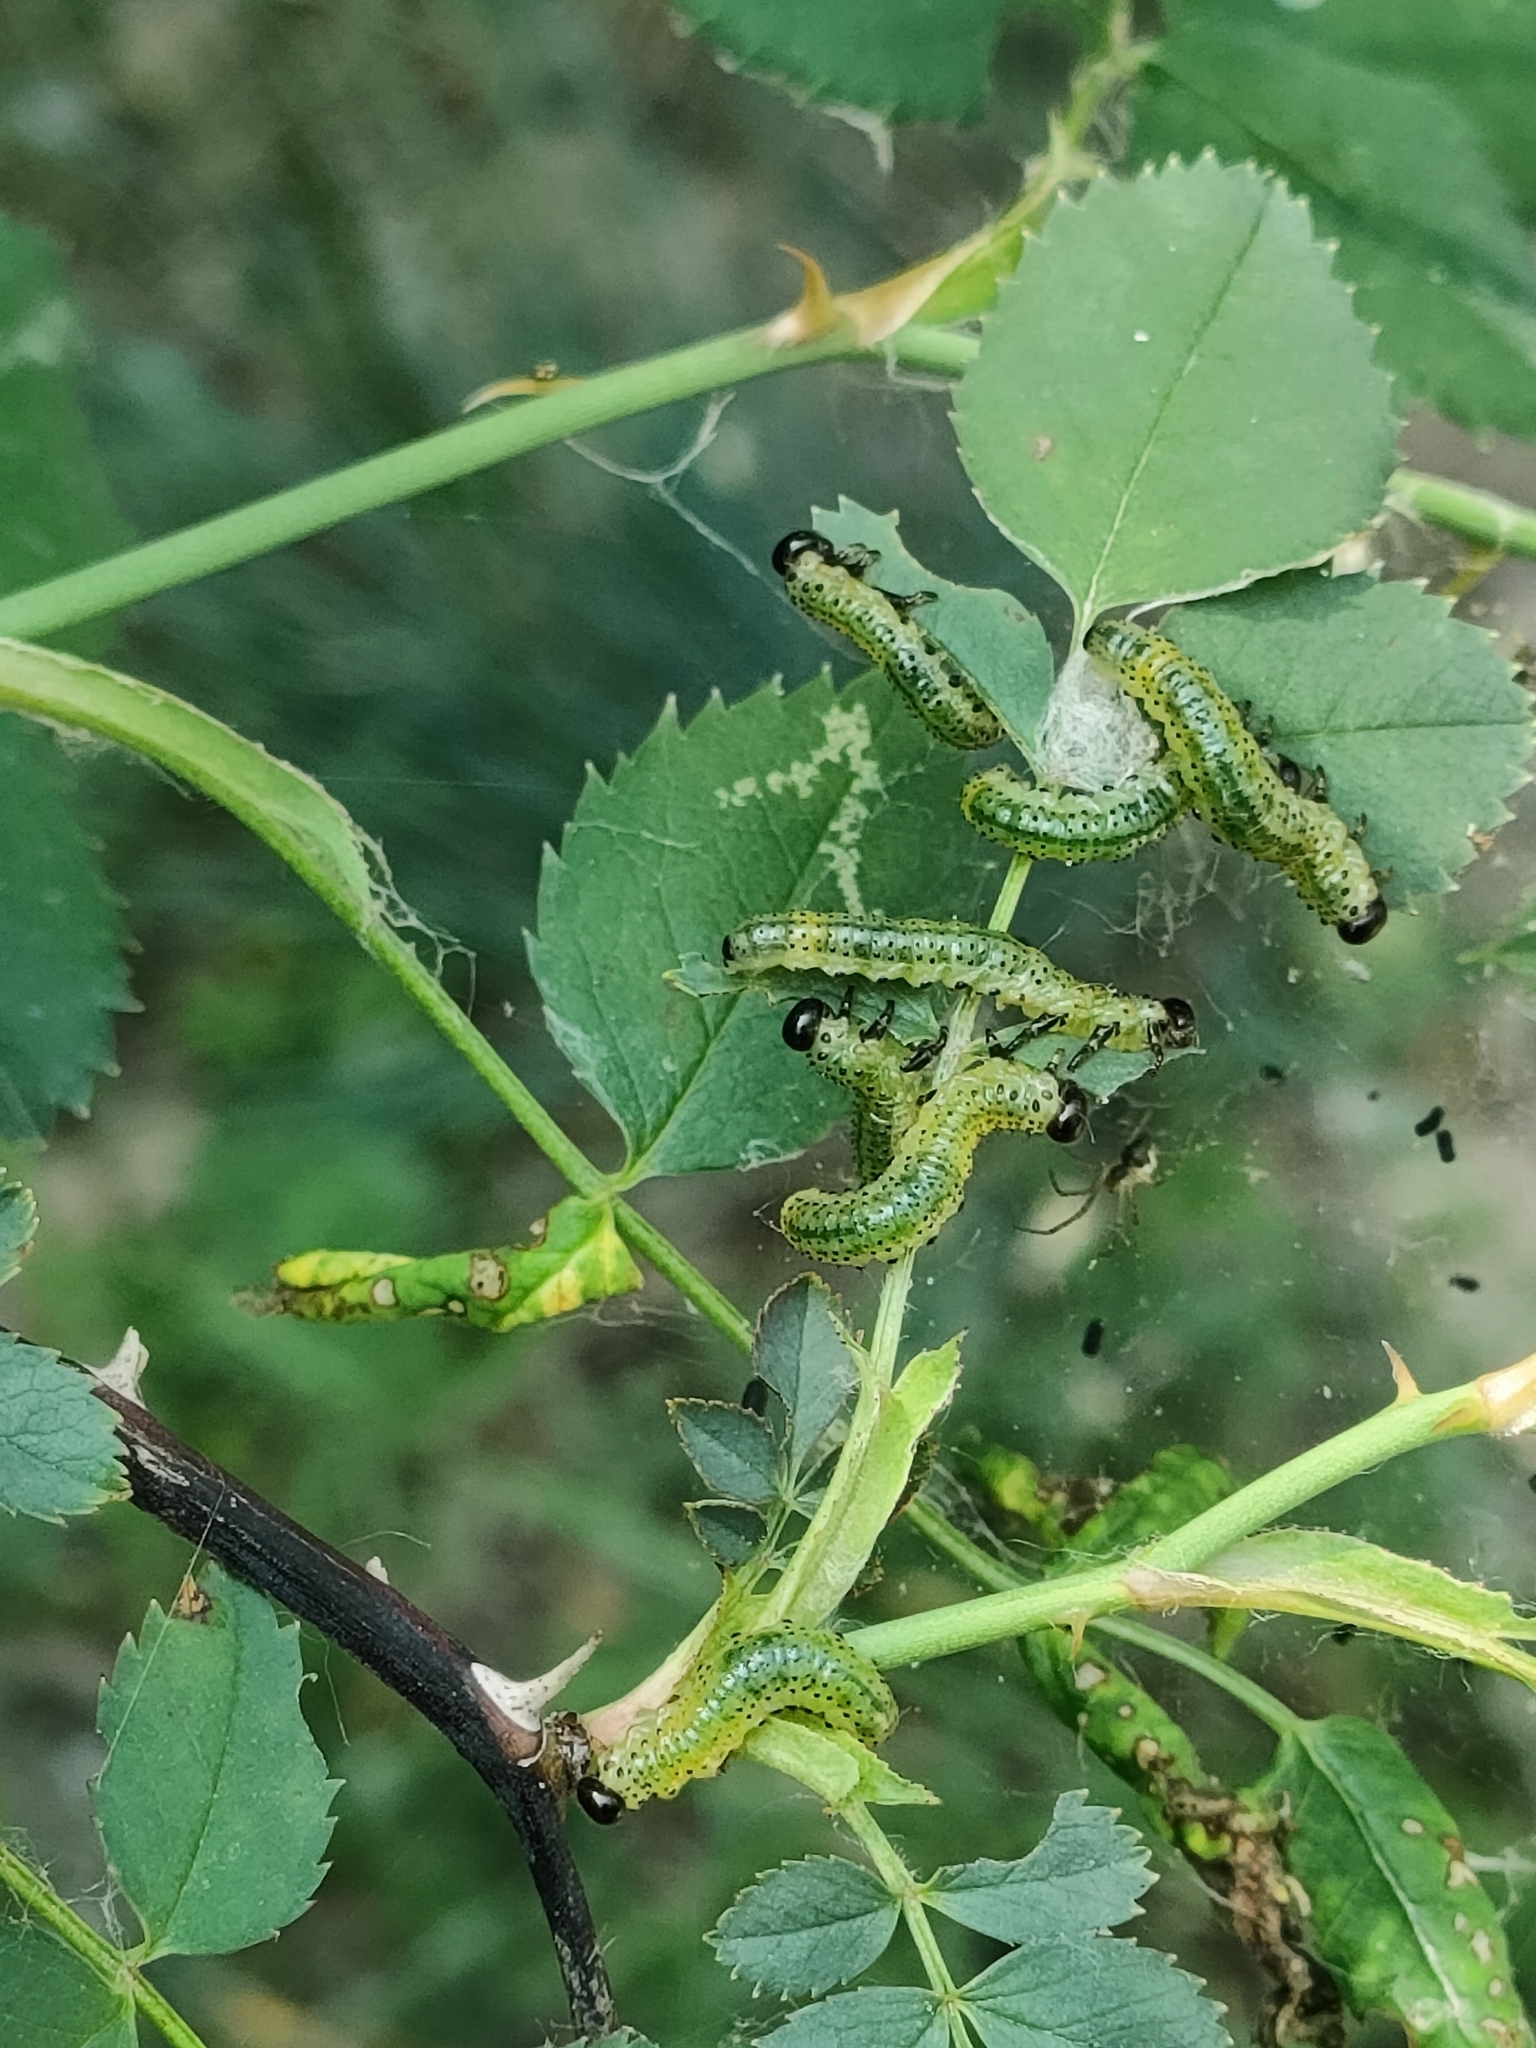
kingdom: Animalia
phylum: Arthropoda
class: Insecta
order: Hymenoptera
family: Argidae
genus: Arge
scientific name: Arge pagana
